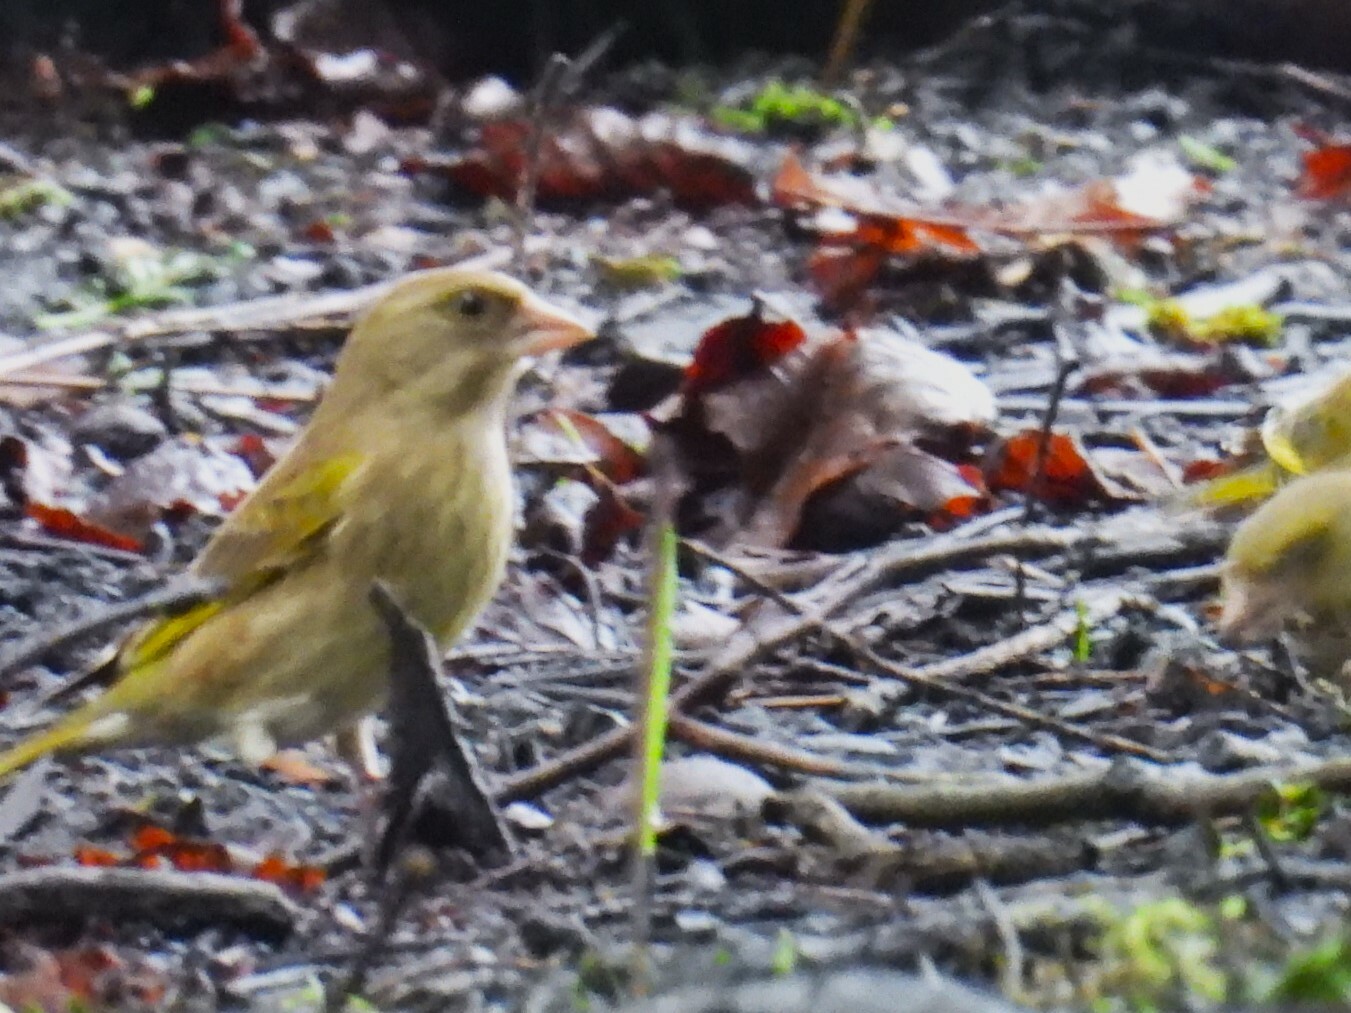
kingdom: Plantae
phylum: Tracheophyta
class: Liliopsida
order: Poales
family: Poaceae
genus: Chloris
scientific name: Chloris chloris
